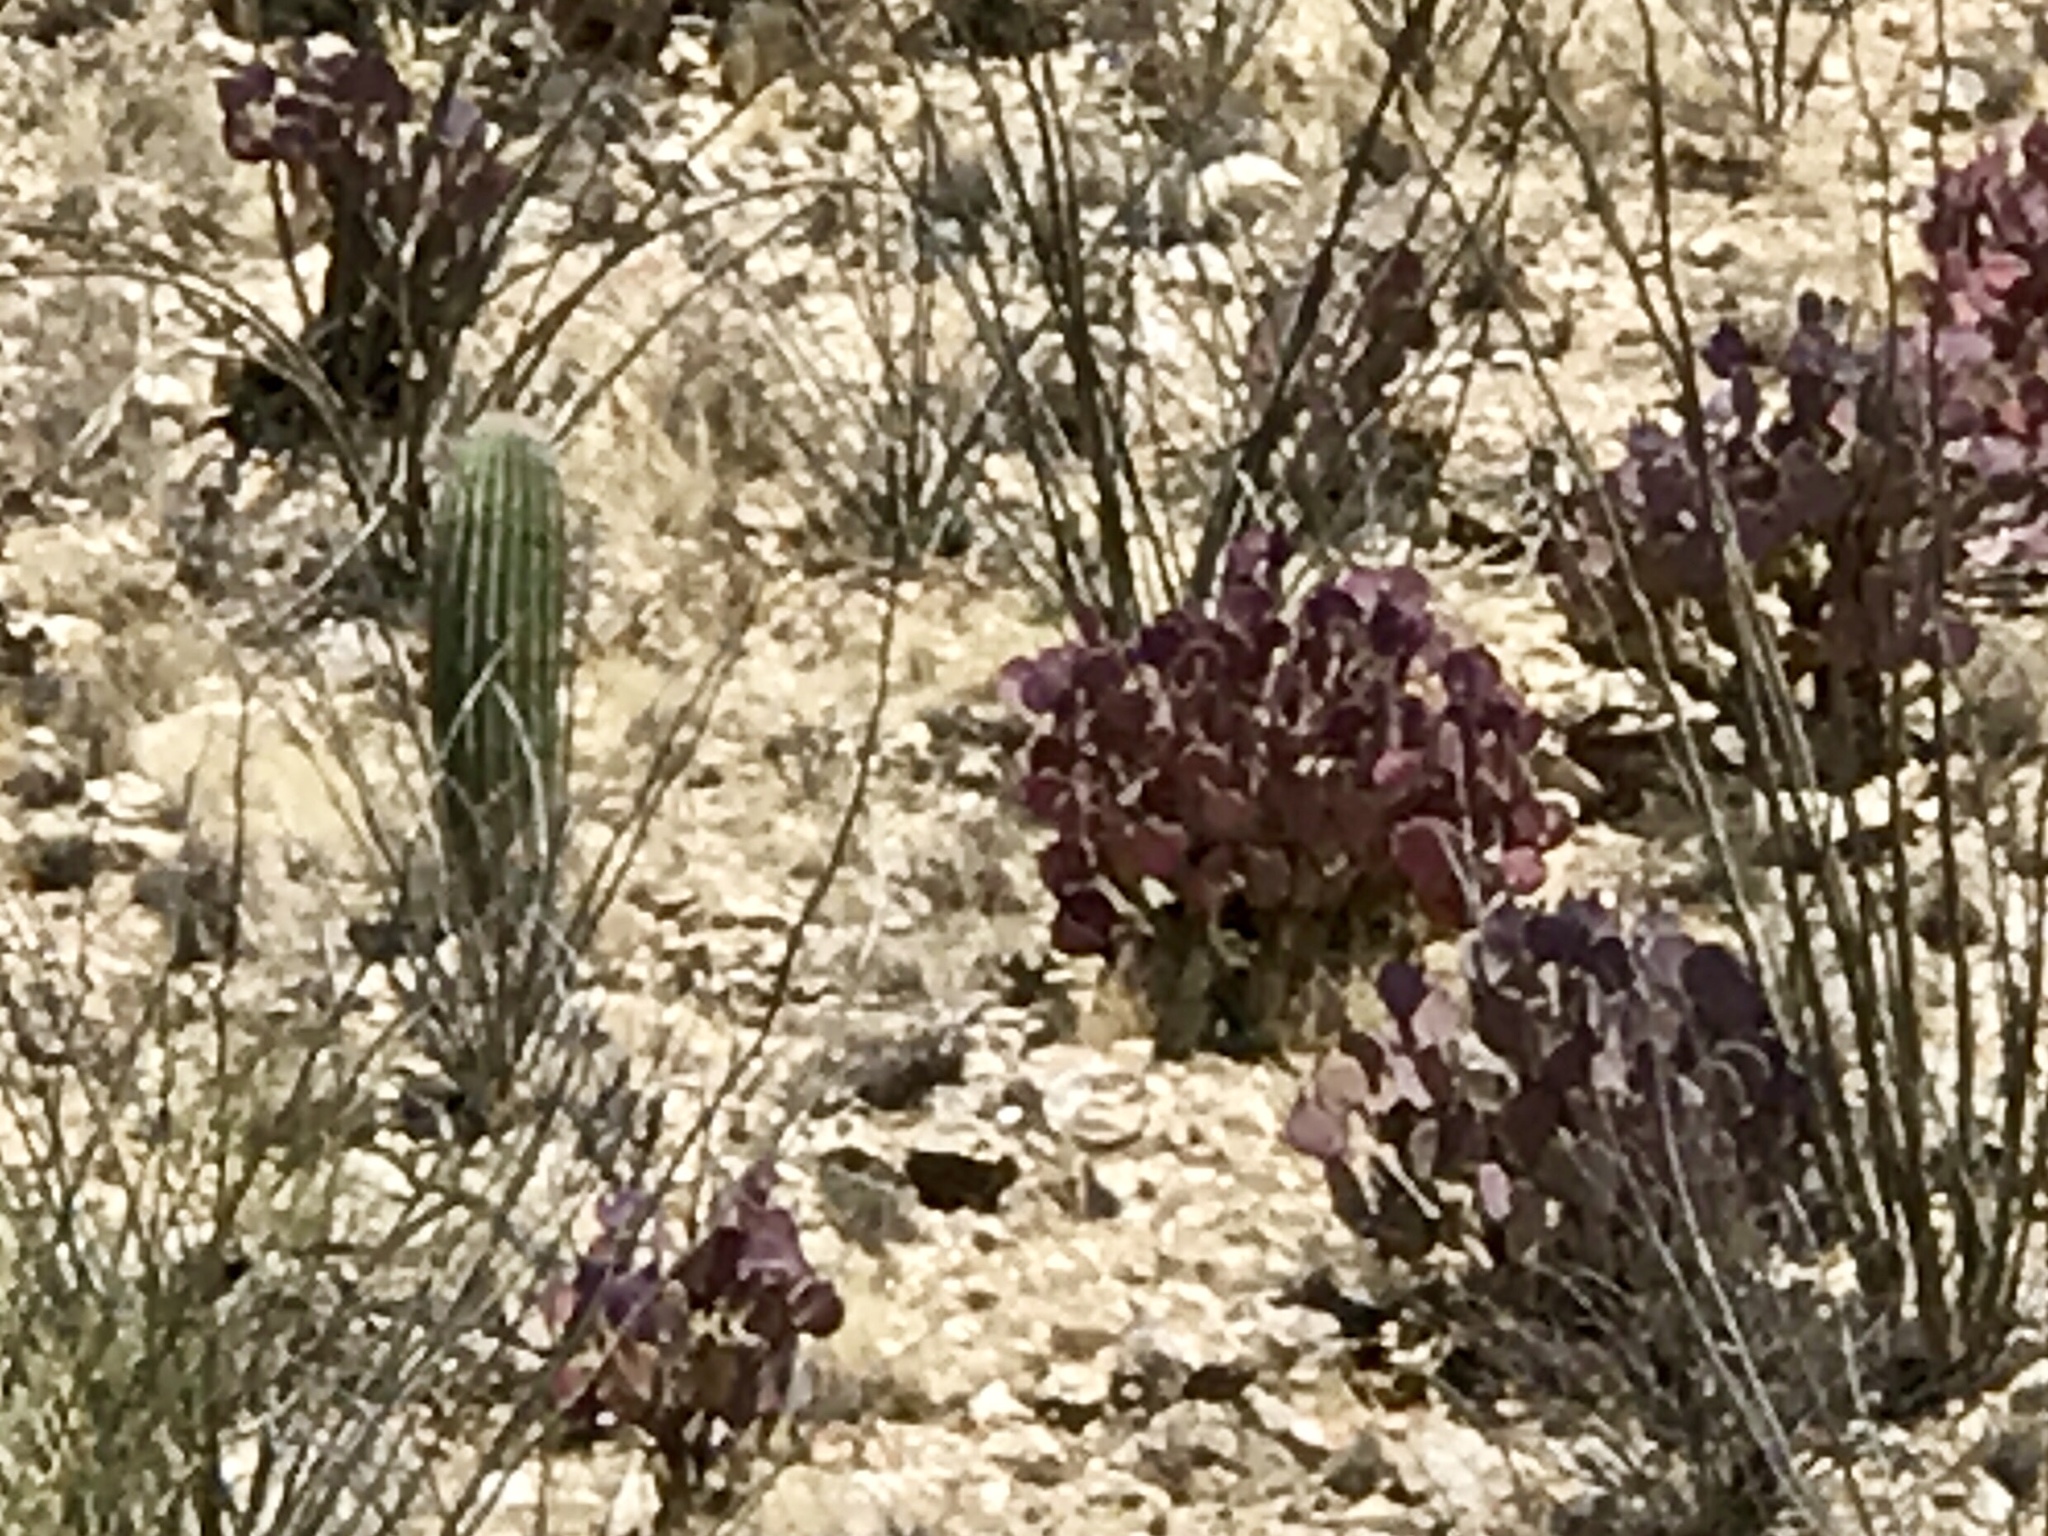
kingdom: Plantae
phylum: Tracheophyta
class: Magnoliopsida
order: Caryophyllales
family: Cactaceae
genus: Carnegiea
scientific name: Carnegiea gigantea
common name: Saguaro
